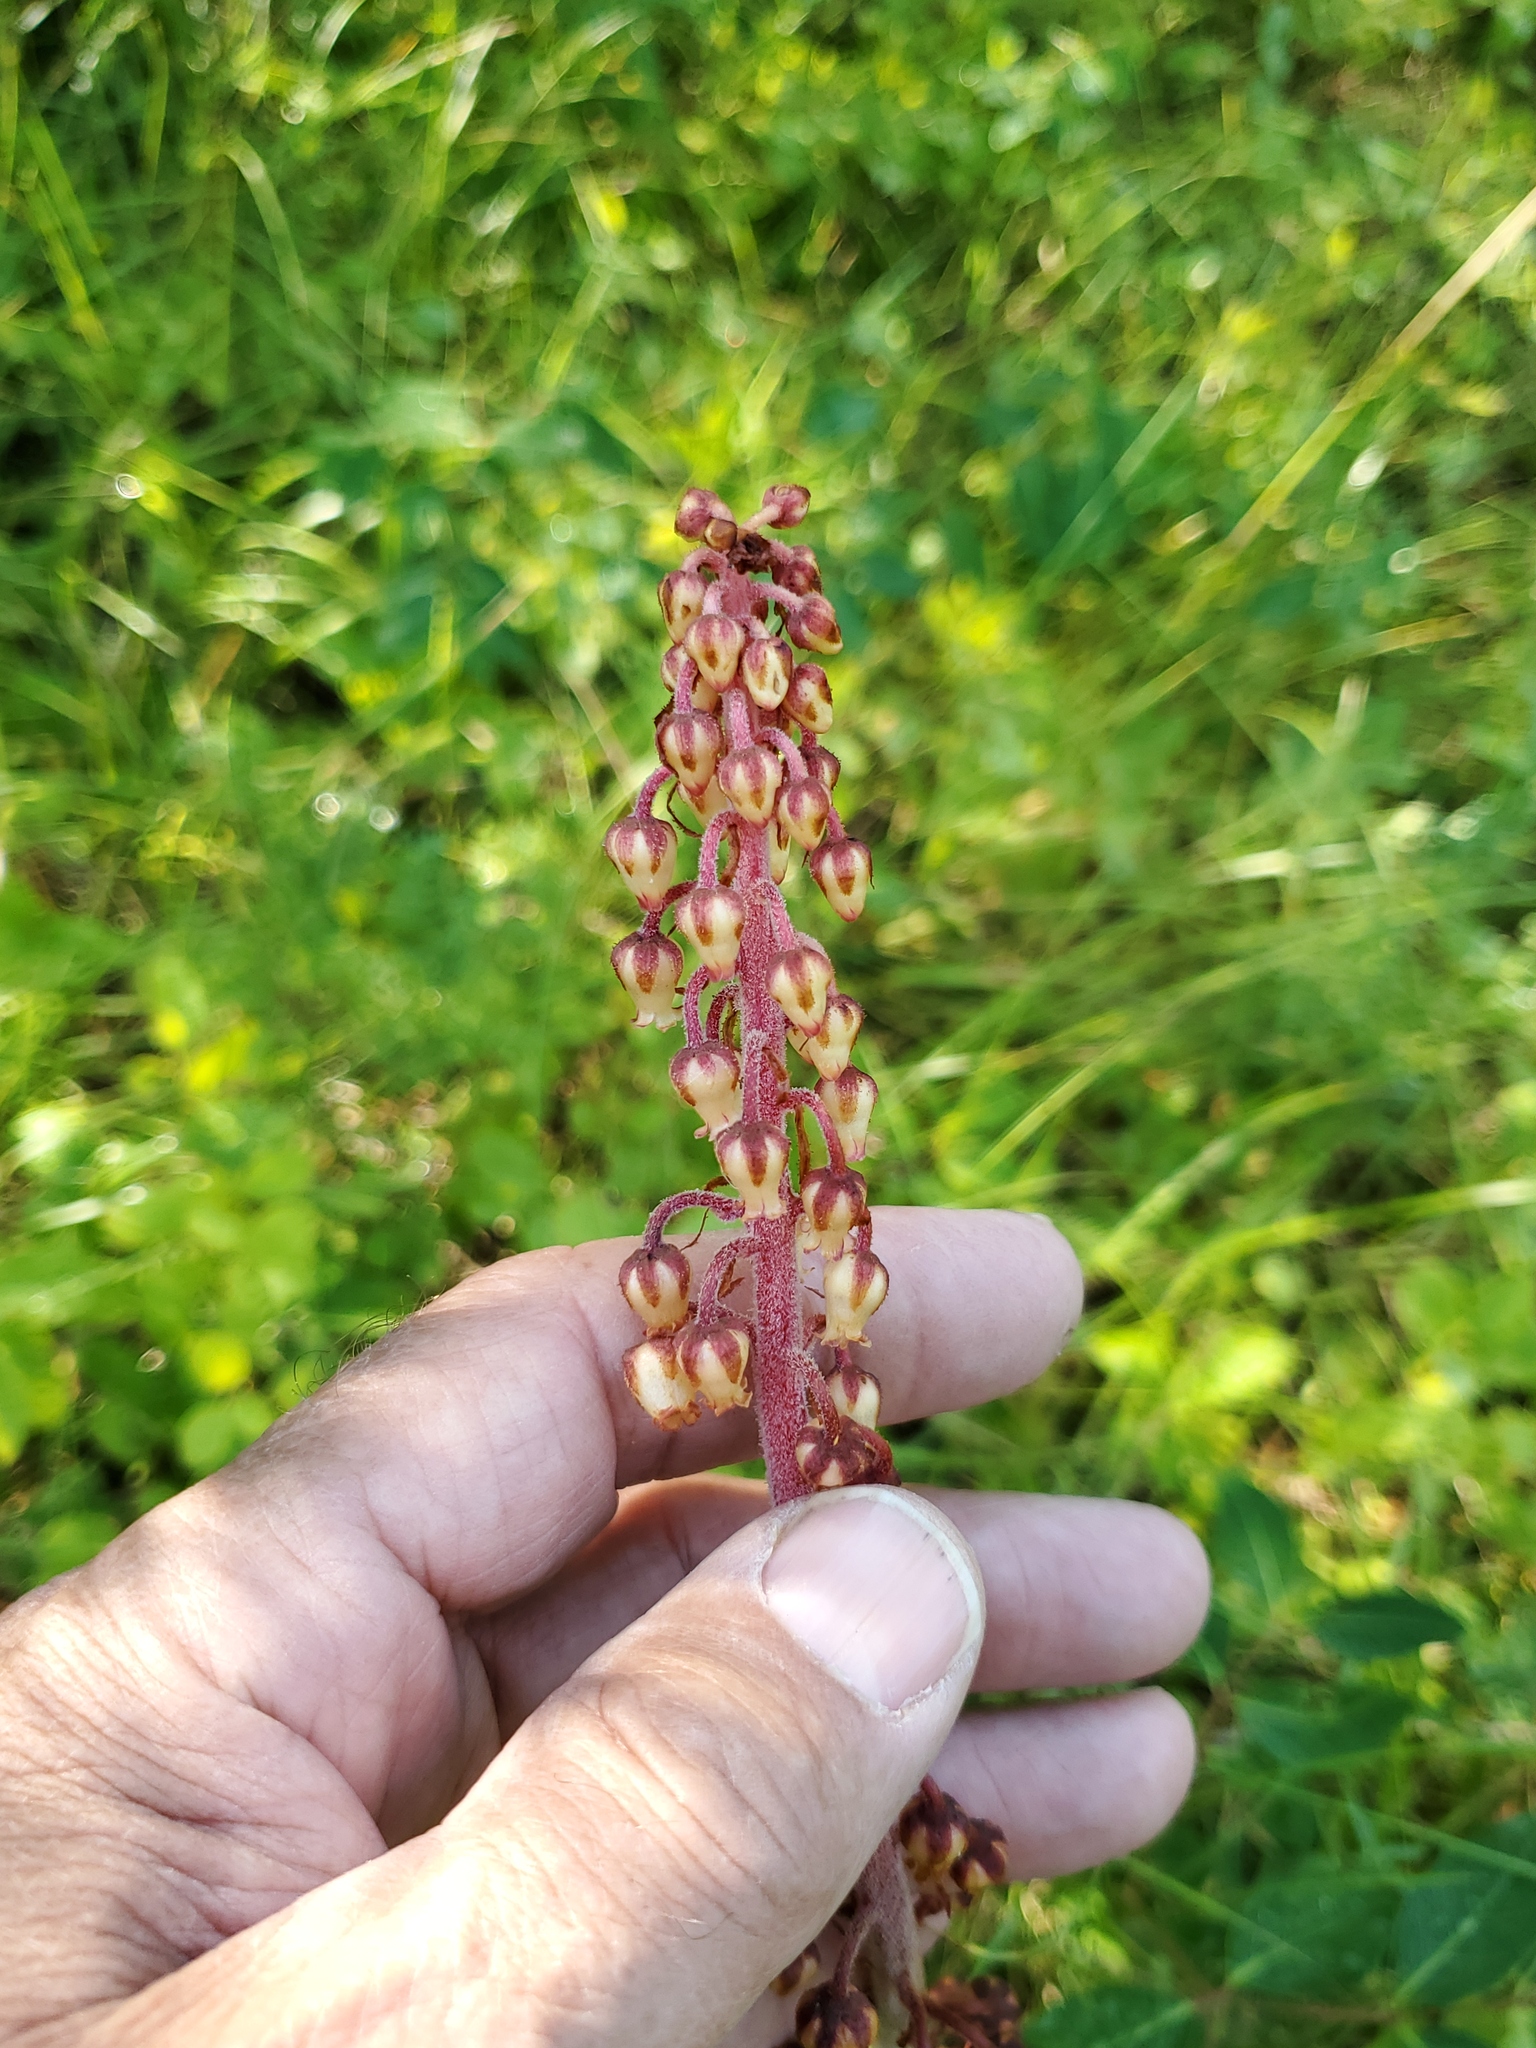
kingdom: Plantae
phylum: Tracheophyta
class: Magnoliopsida
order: Ericales
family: Ericaceae
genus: Pterospora
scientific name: Pterospora andromedea
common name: Giant bird's-nest
